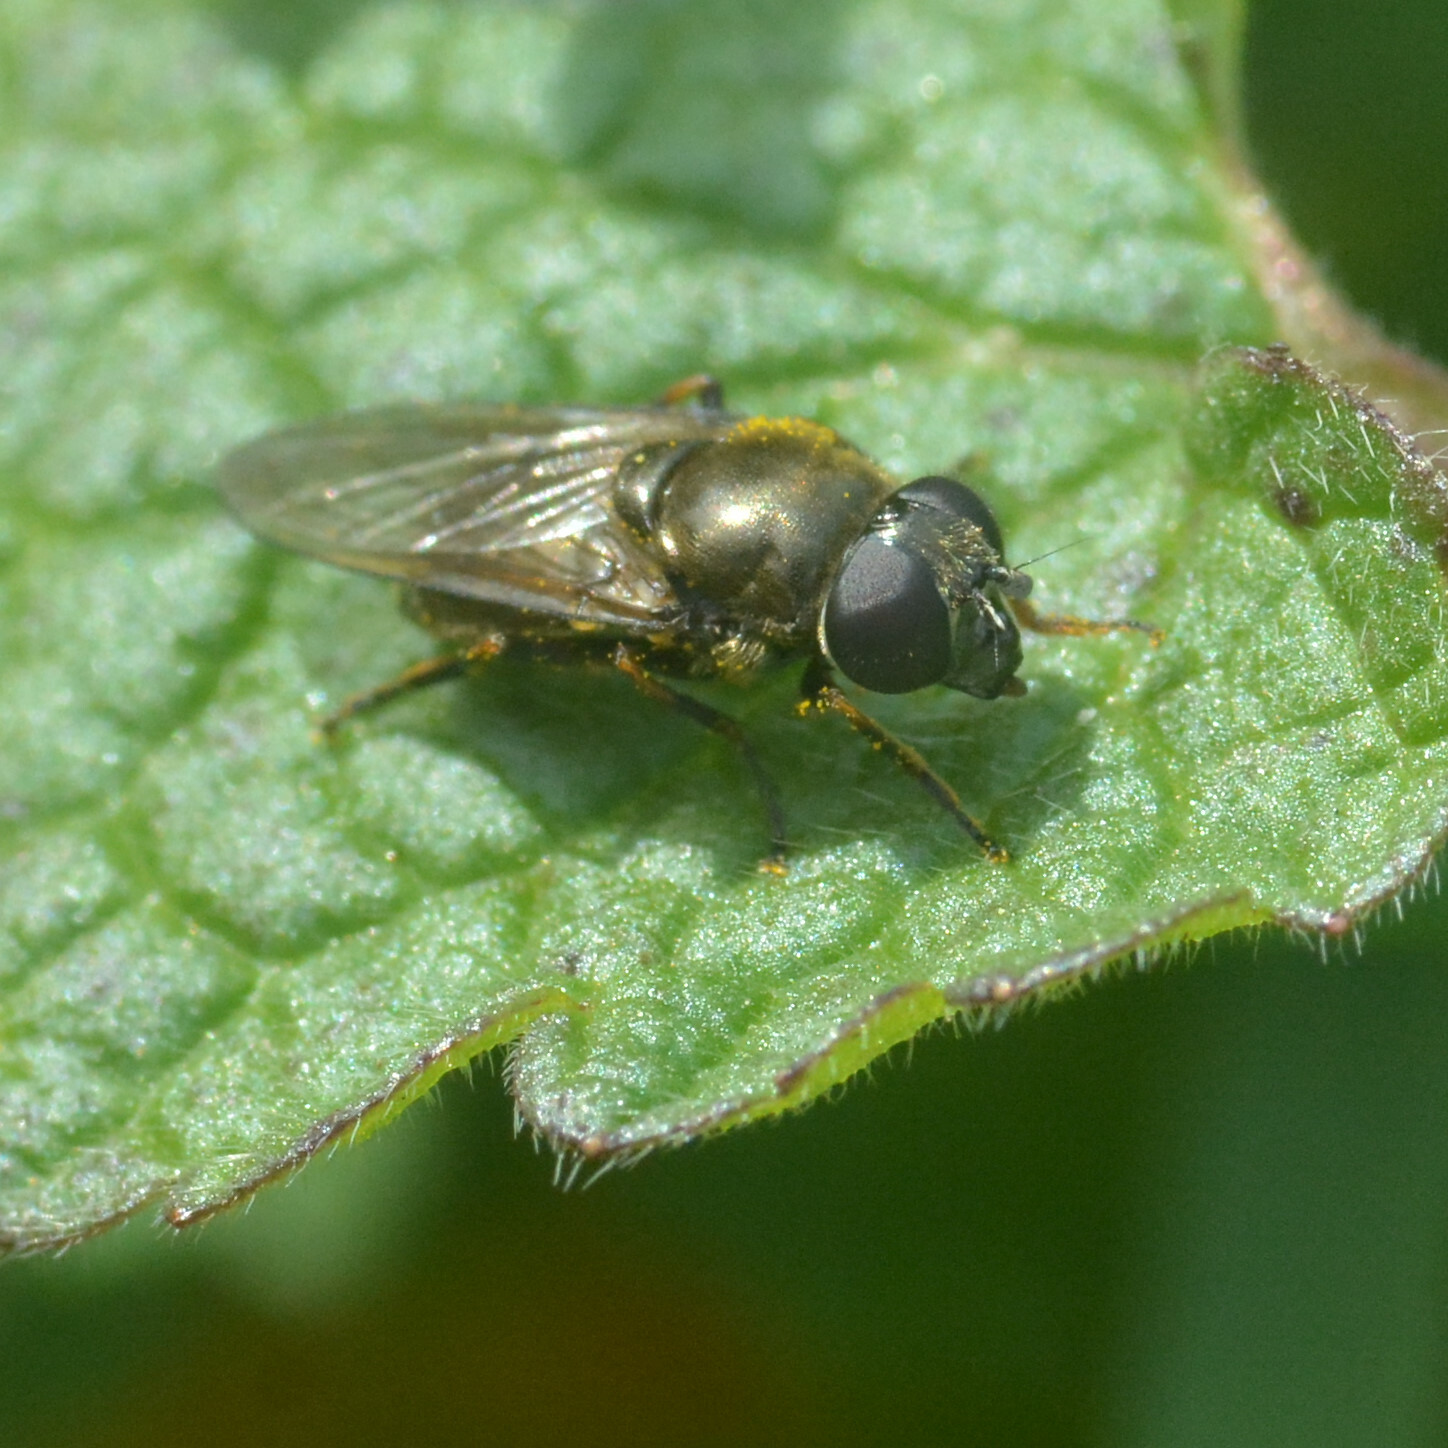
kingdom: Animalia
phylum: Arthropoda
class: Insecta
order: Diptera
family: Syrphidae
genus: Cheilosia
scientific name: Cheilosia
